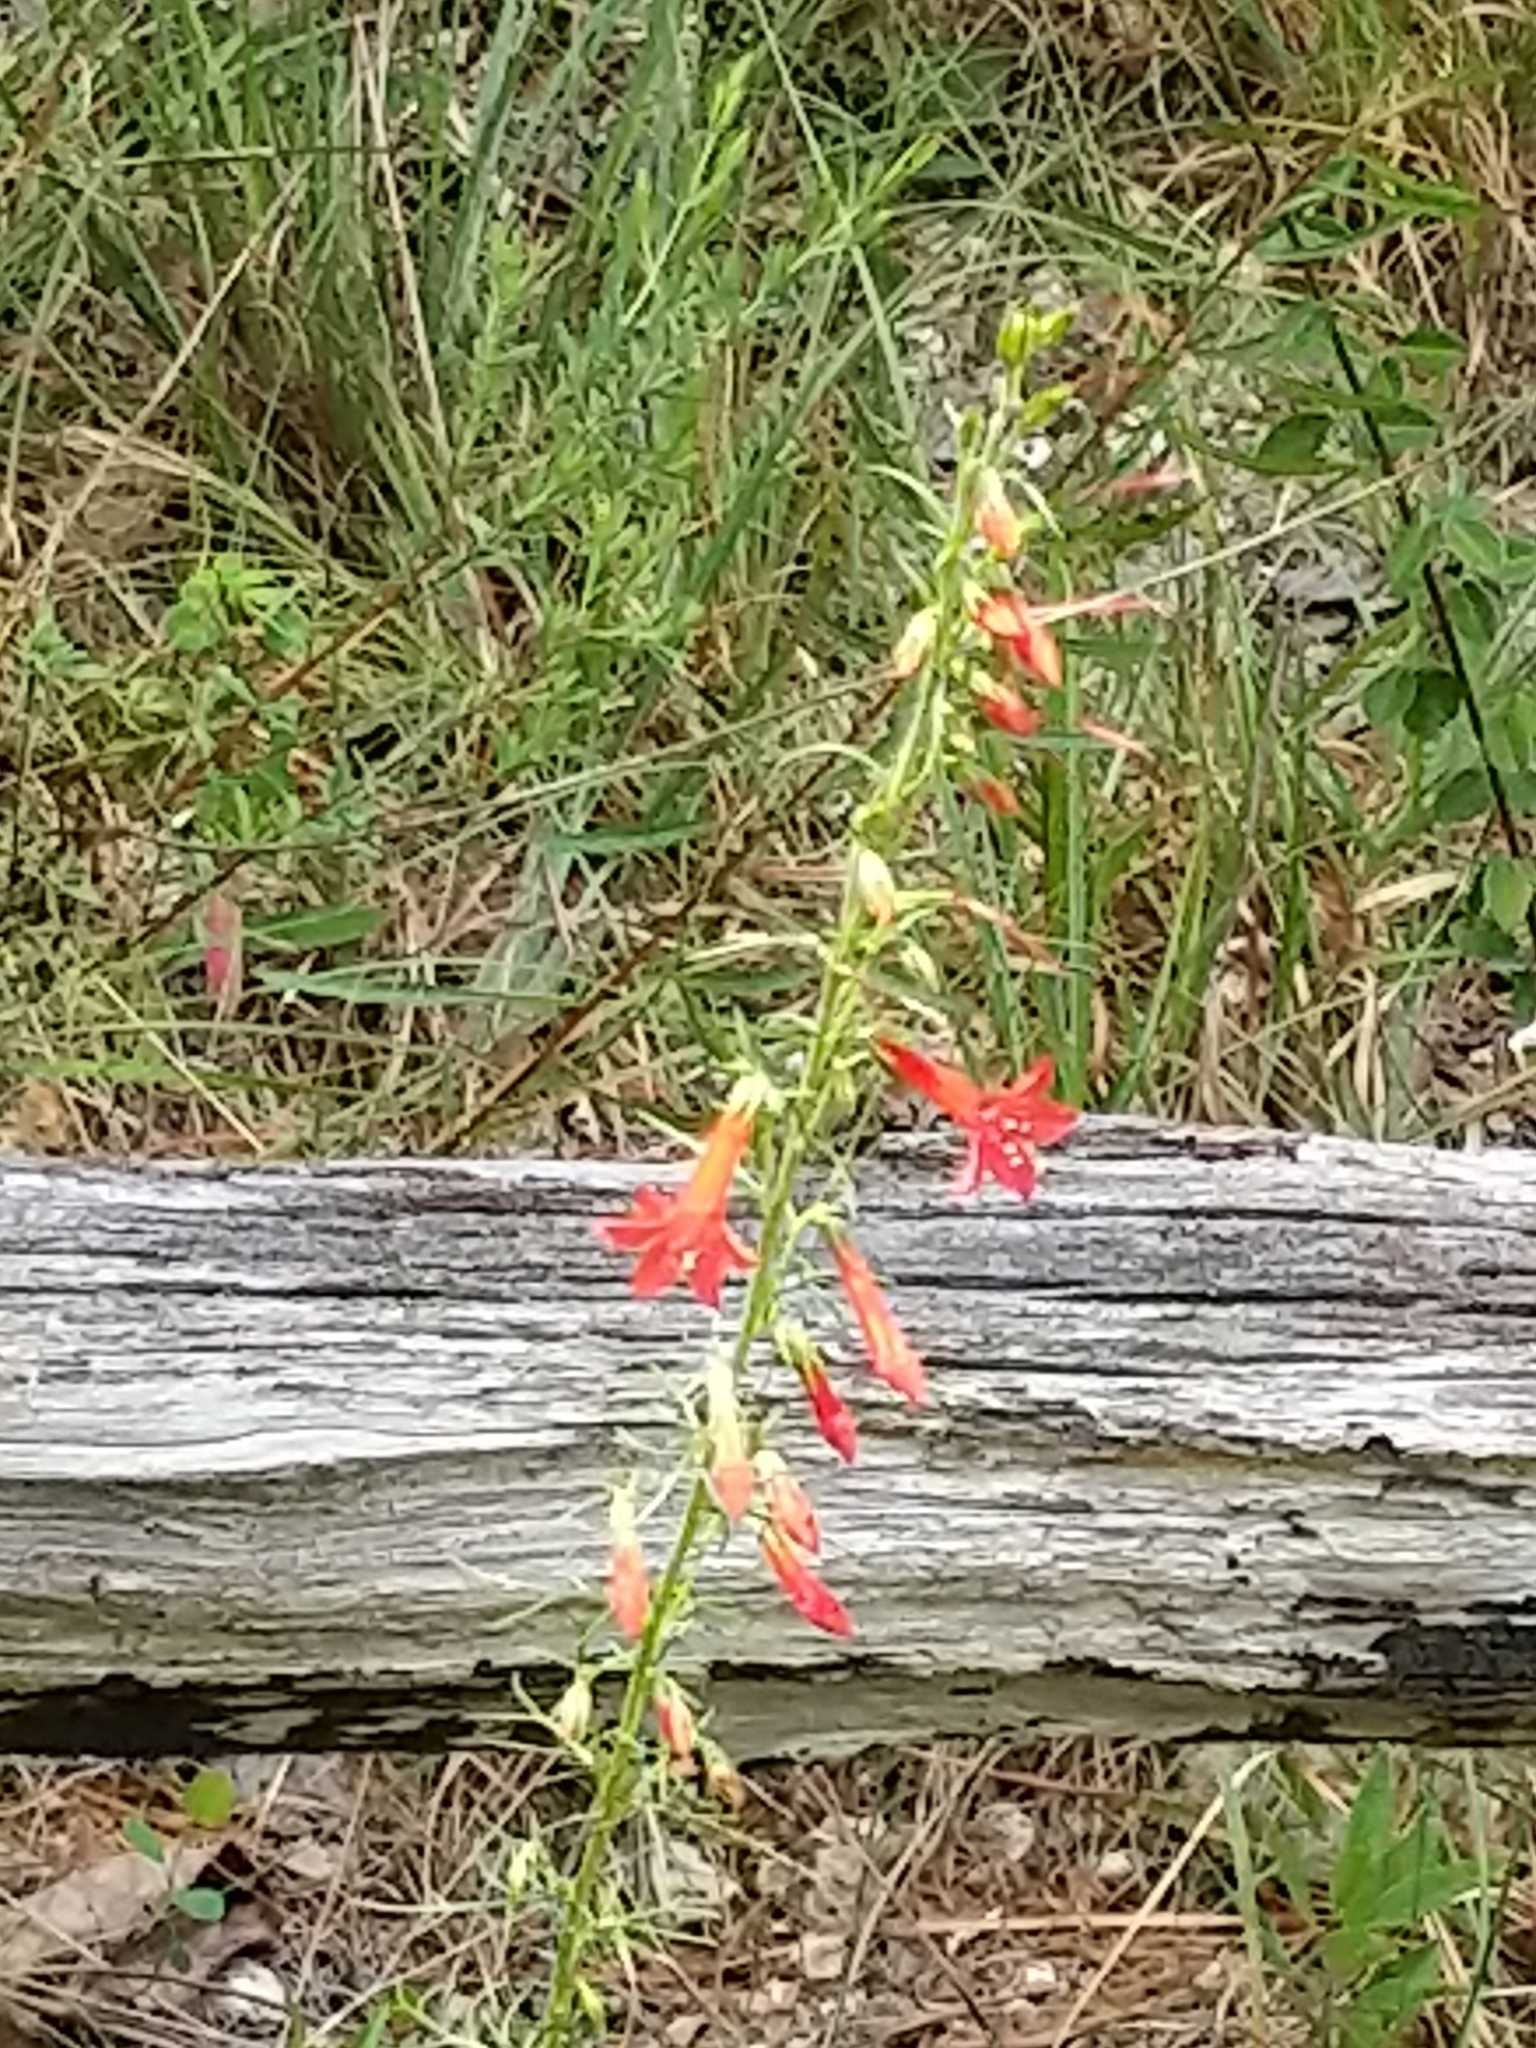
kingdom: Plantae
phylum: Tracheophyta
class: Magnoliopsida
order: Ericales
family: Polemoniaceae
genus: Ipomopsis
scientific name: Ipomopsis rubra
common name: Skyrocket
